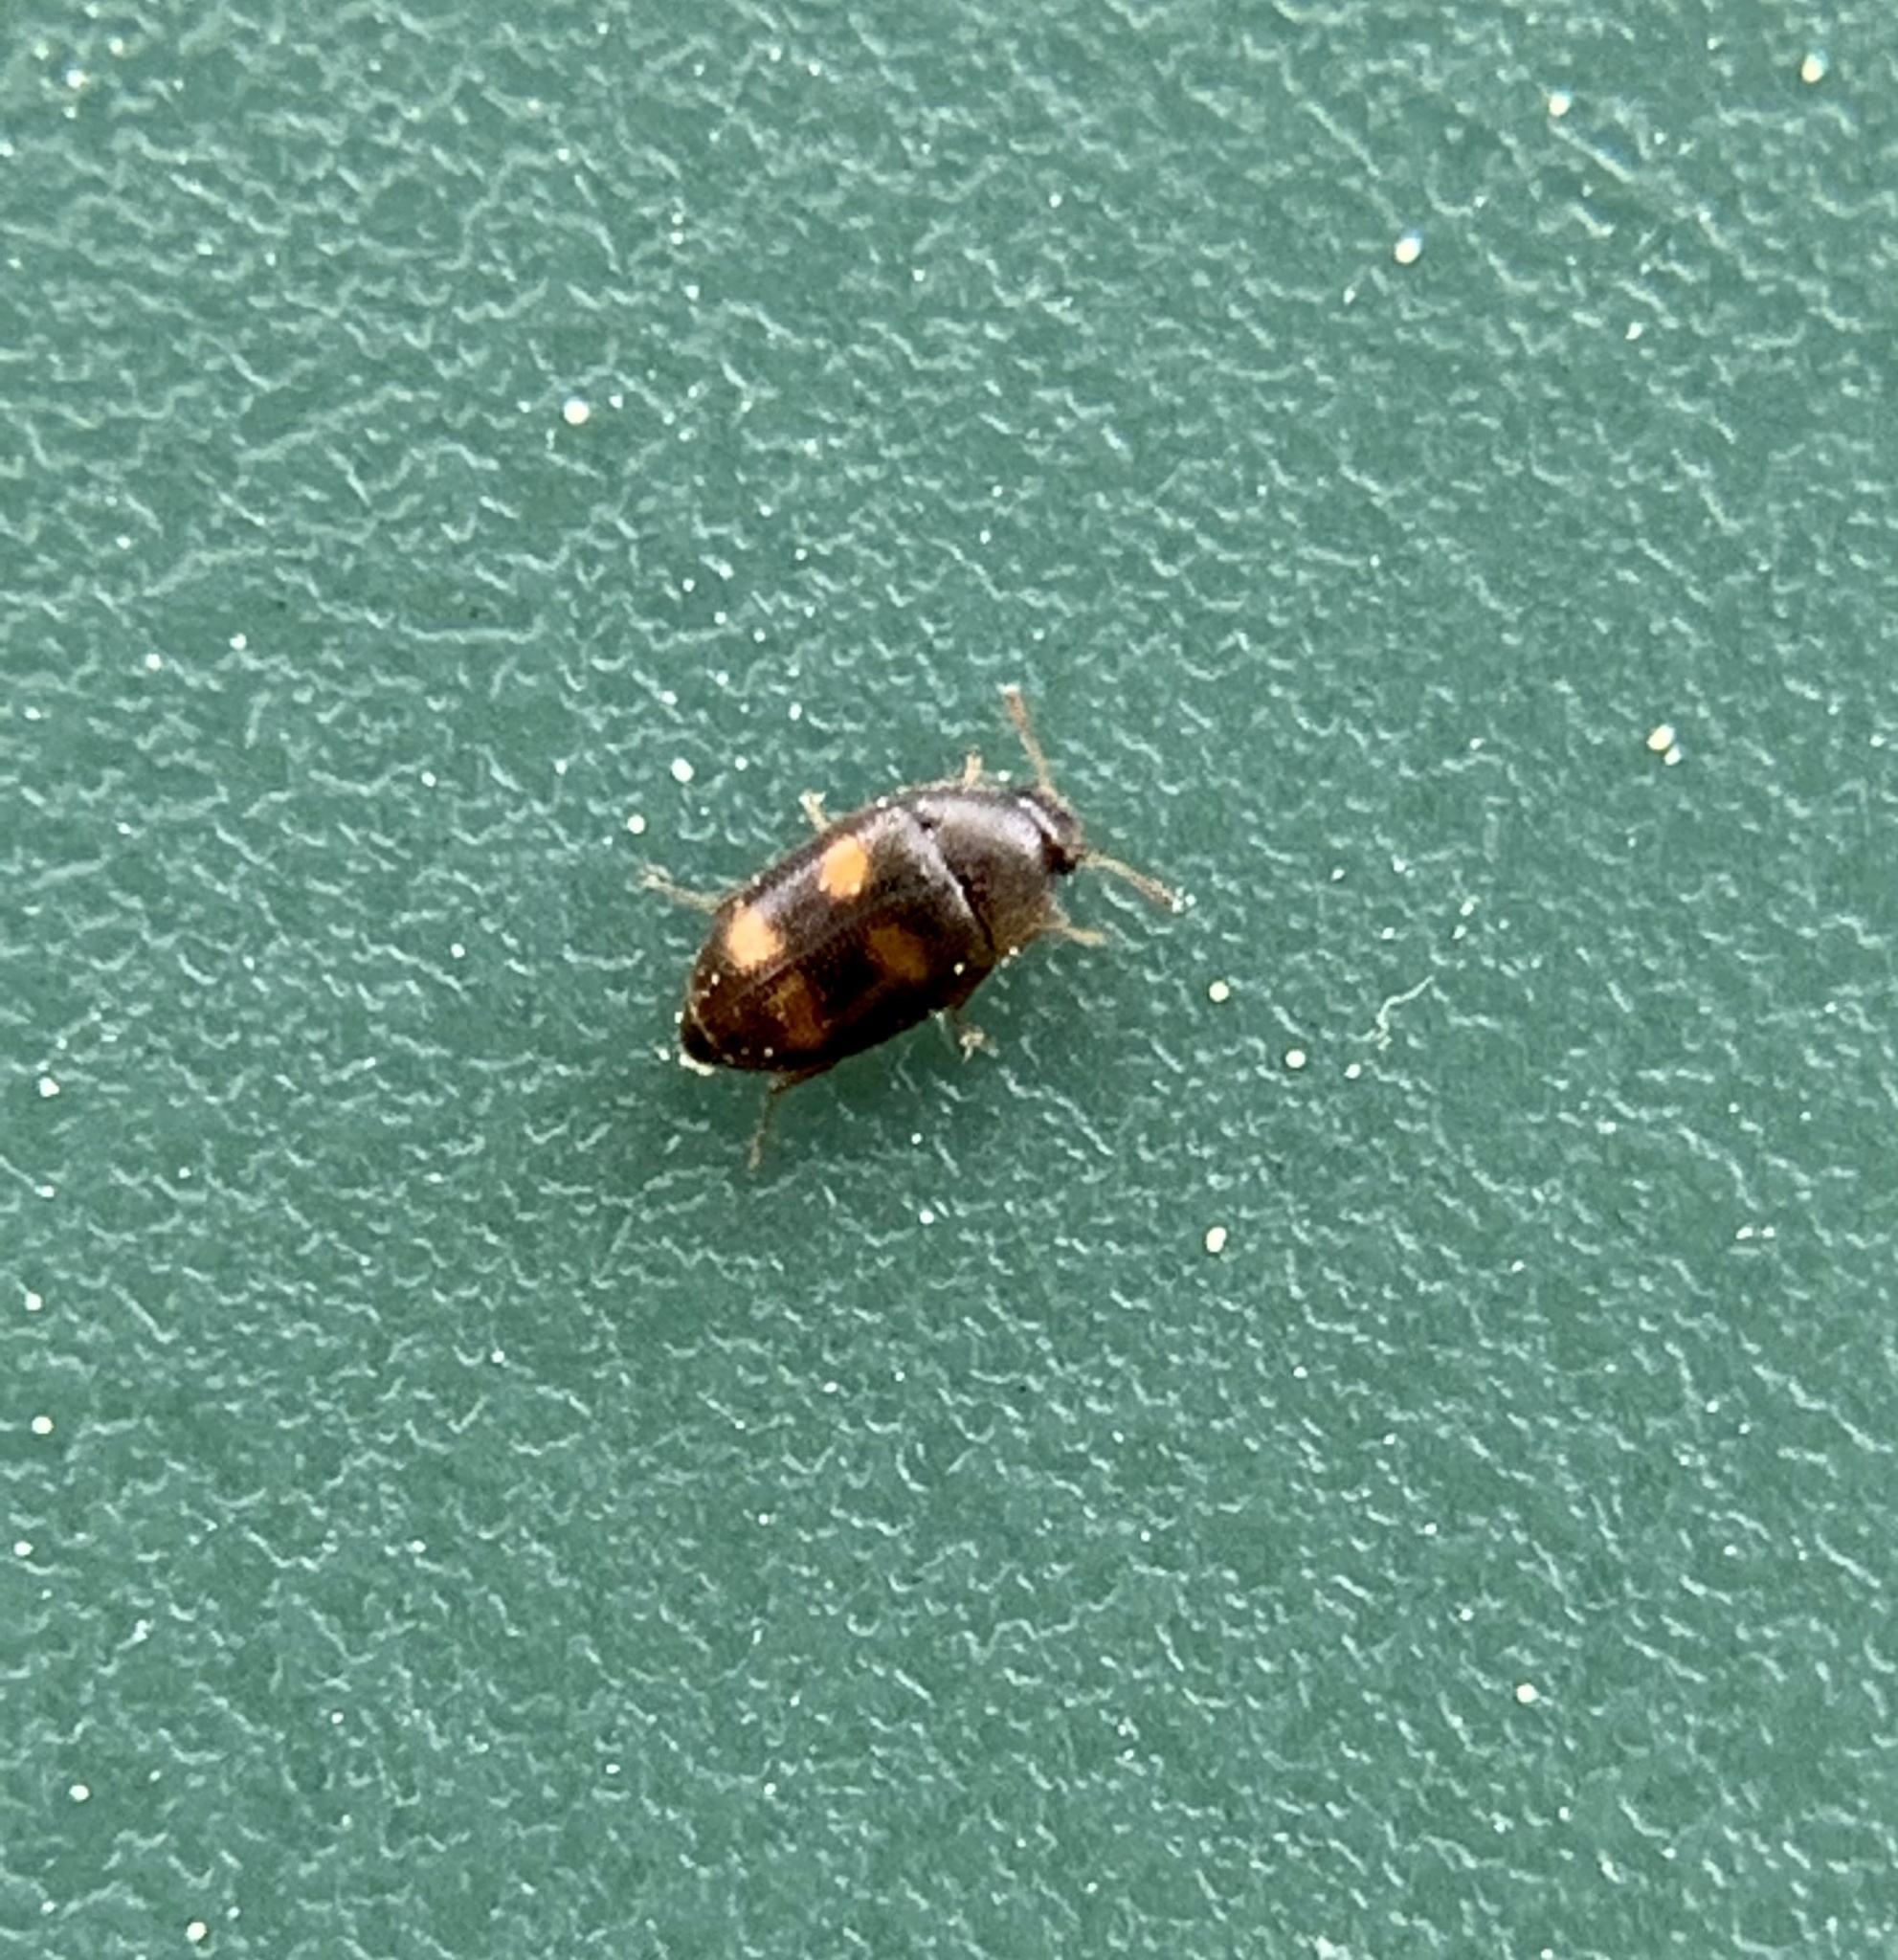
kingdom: Animalia
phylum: Arthropoda
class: Insecta
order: Coleoptera
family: Mycetophagidae
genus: Litargus
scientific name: Litargus tetraspilotus
